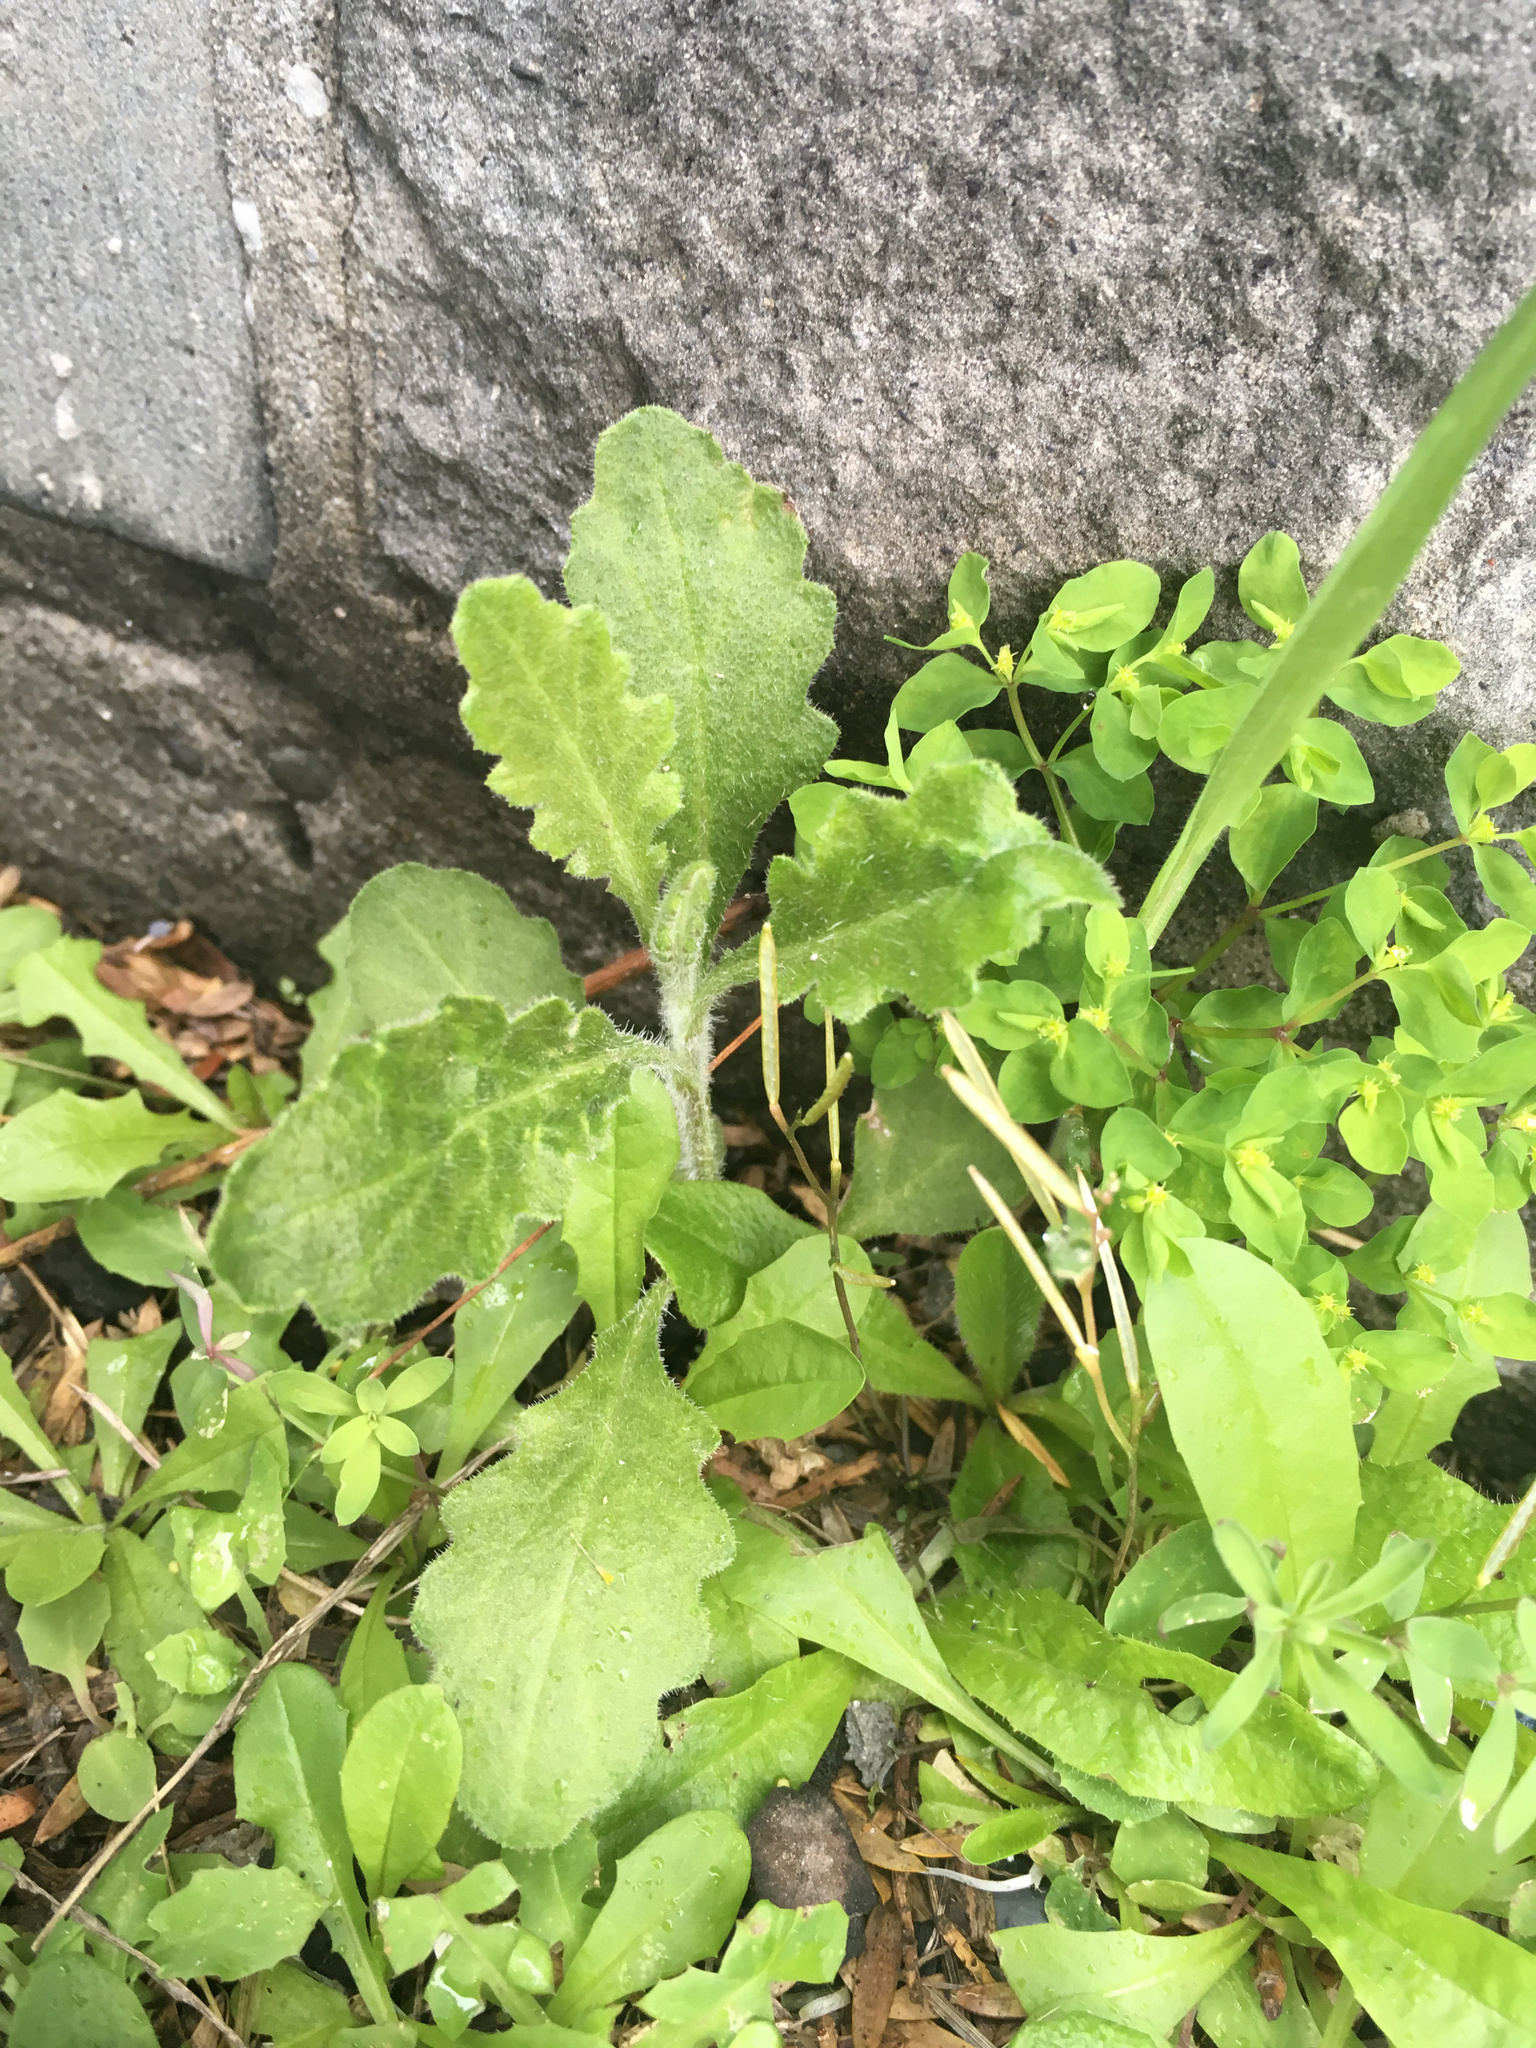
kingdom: Plantae
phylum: Tracheophyta
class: Magnoliopsida
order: Asterales
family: Asteraceae
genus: Senecio
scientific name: Senecio glomeratus
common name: Cutleaf burnweed
